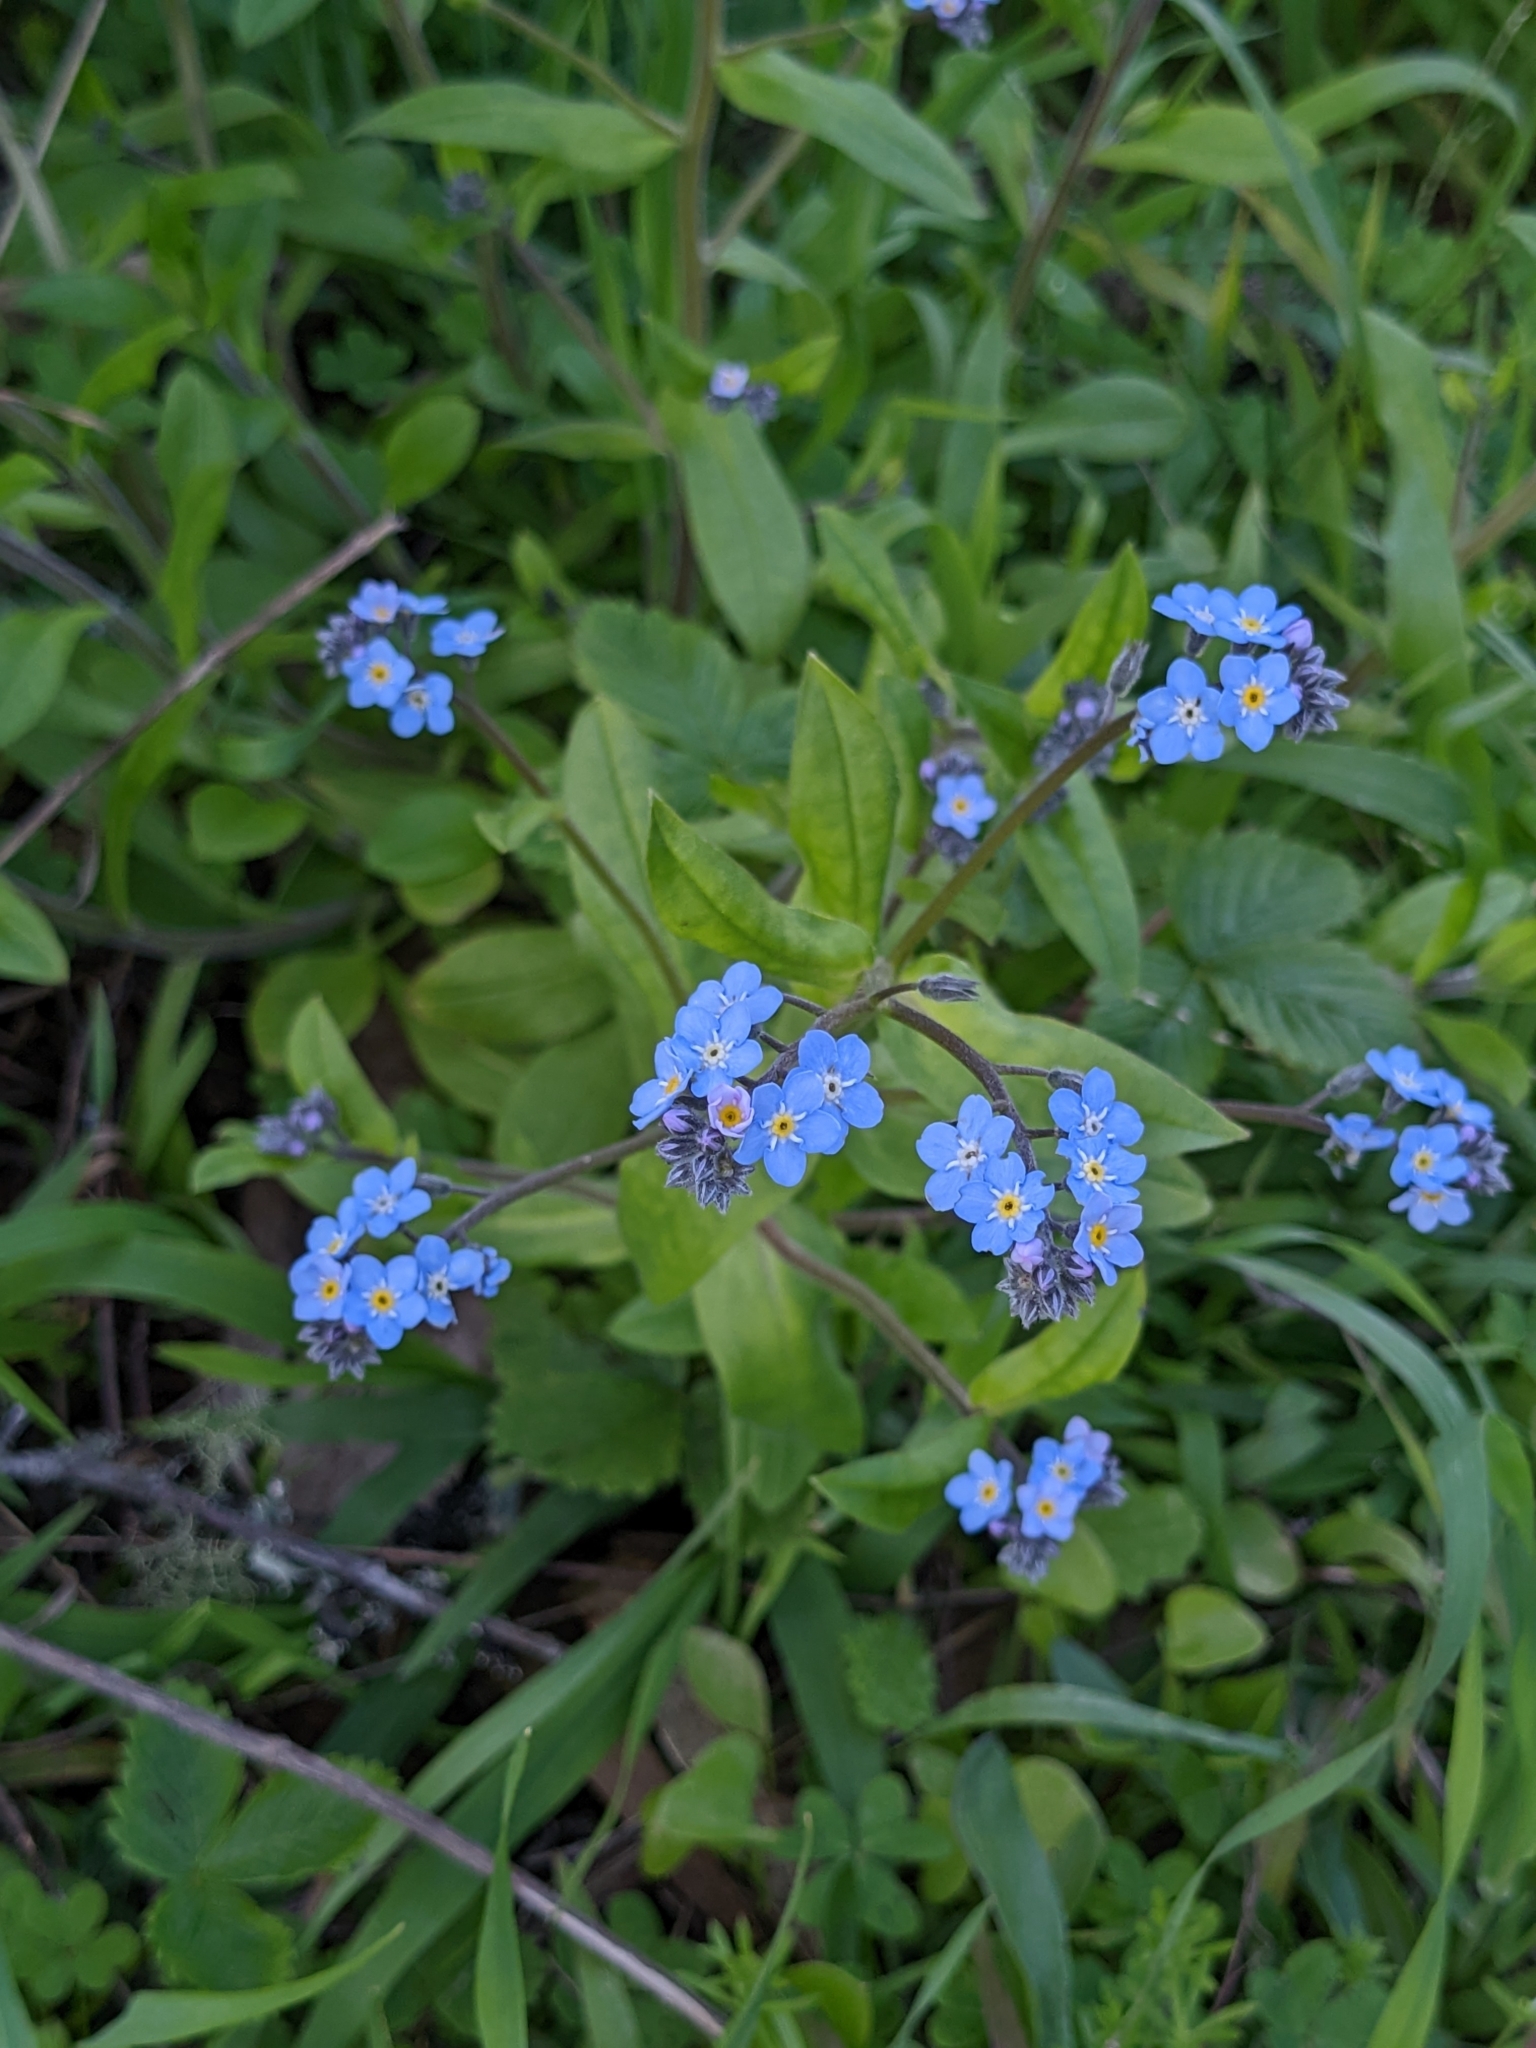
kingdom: Plantae
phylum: Tracheophyta
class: Magnoliopsida
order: Boraginales
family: Boraginaceae
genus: Myosotis
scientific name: Myosotis latifolia
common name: Broadleaf forget-me-not
